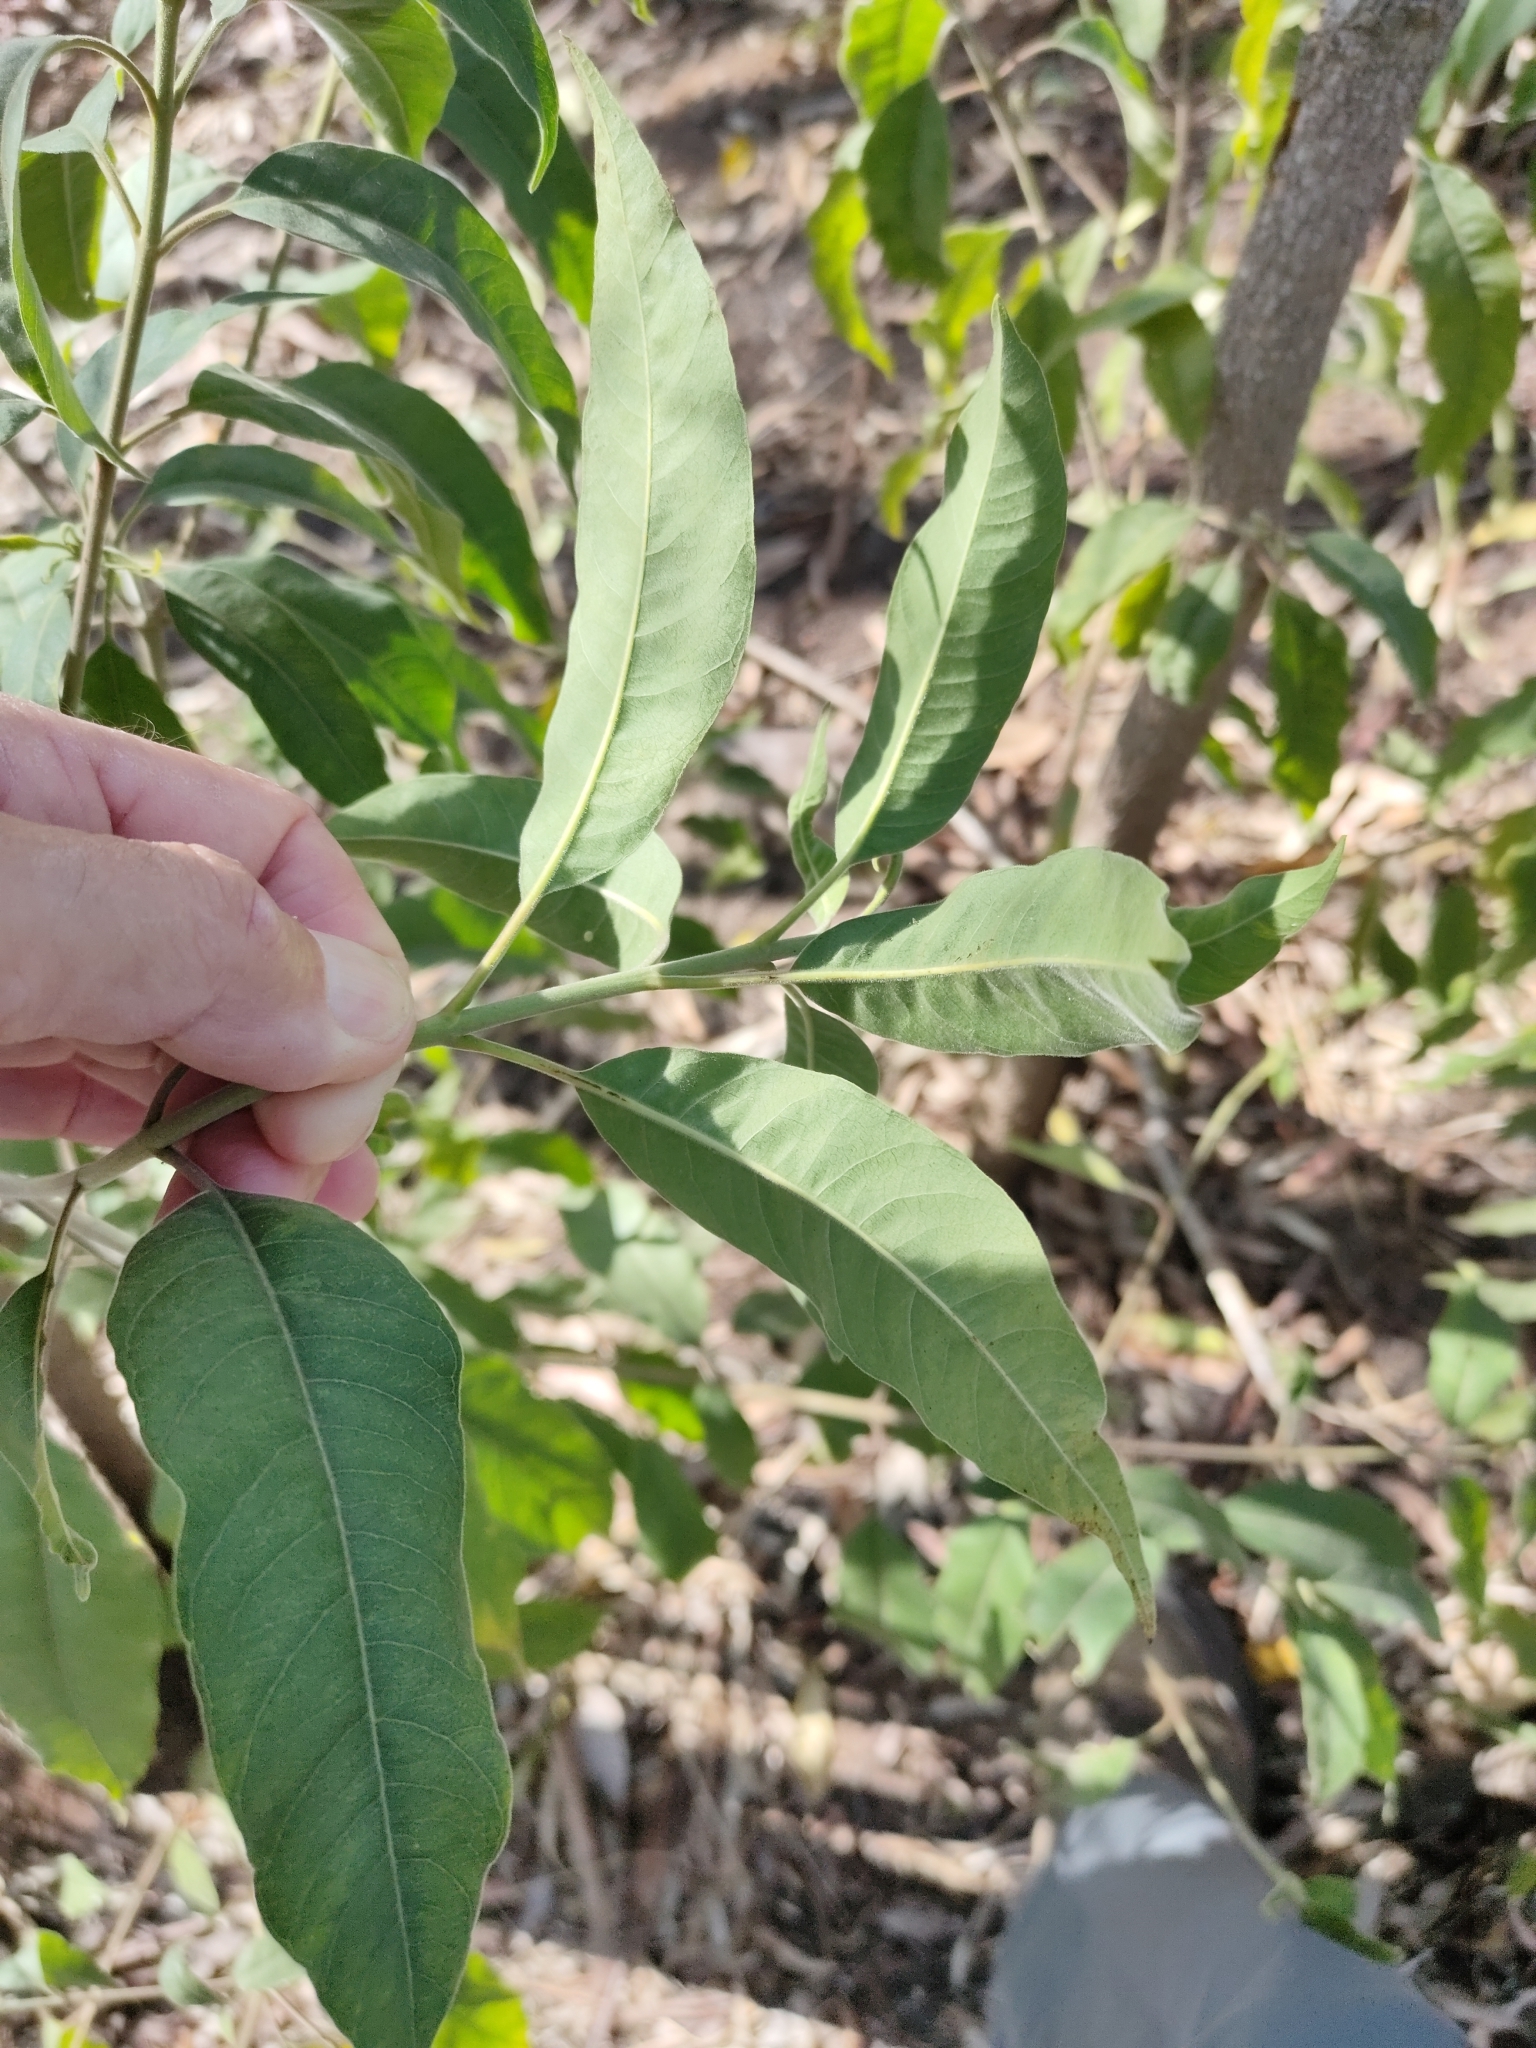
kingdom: Plantae
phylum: Tracheophyta
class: Magnoliopsida
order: Gentianales
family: Apocynaceae
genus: Alstonia
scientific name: Alstonia mollis
